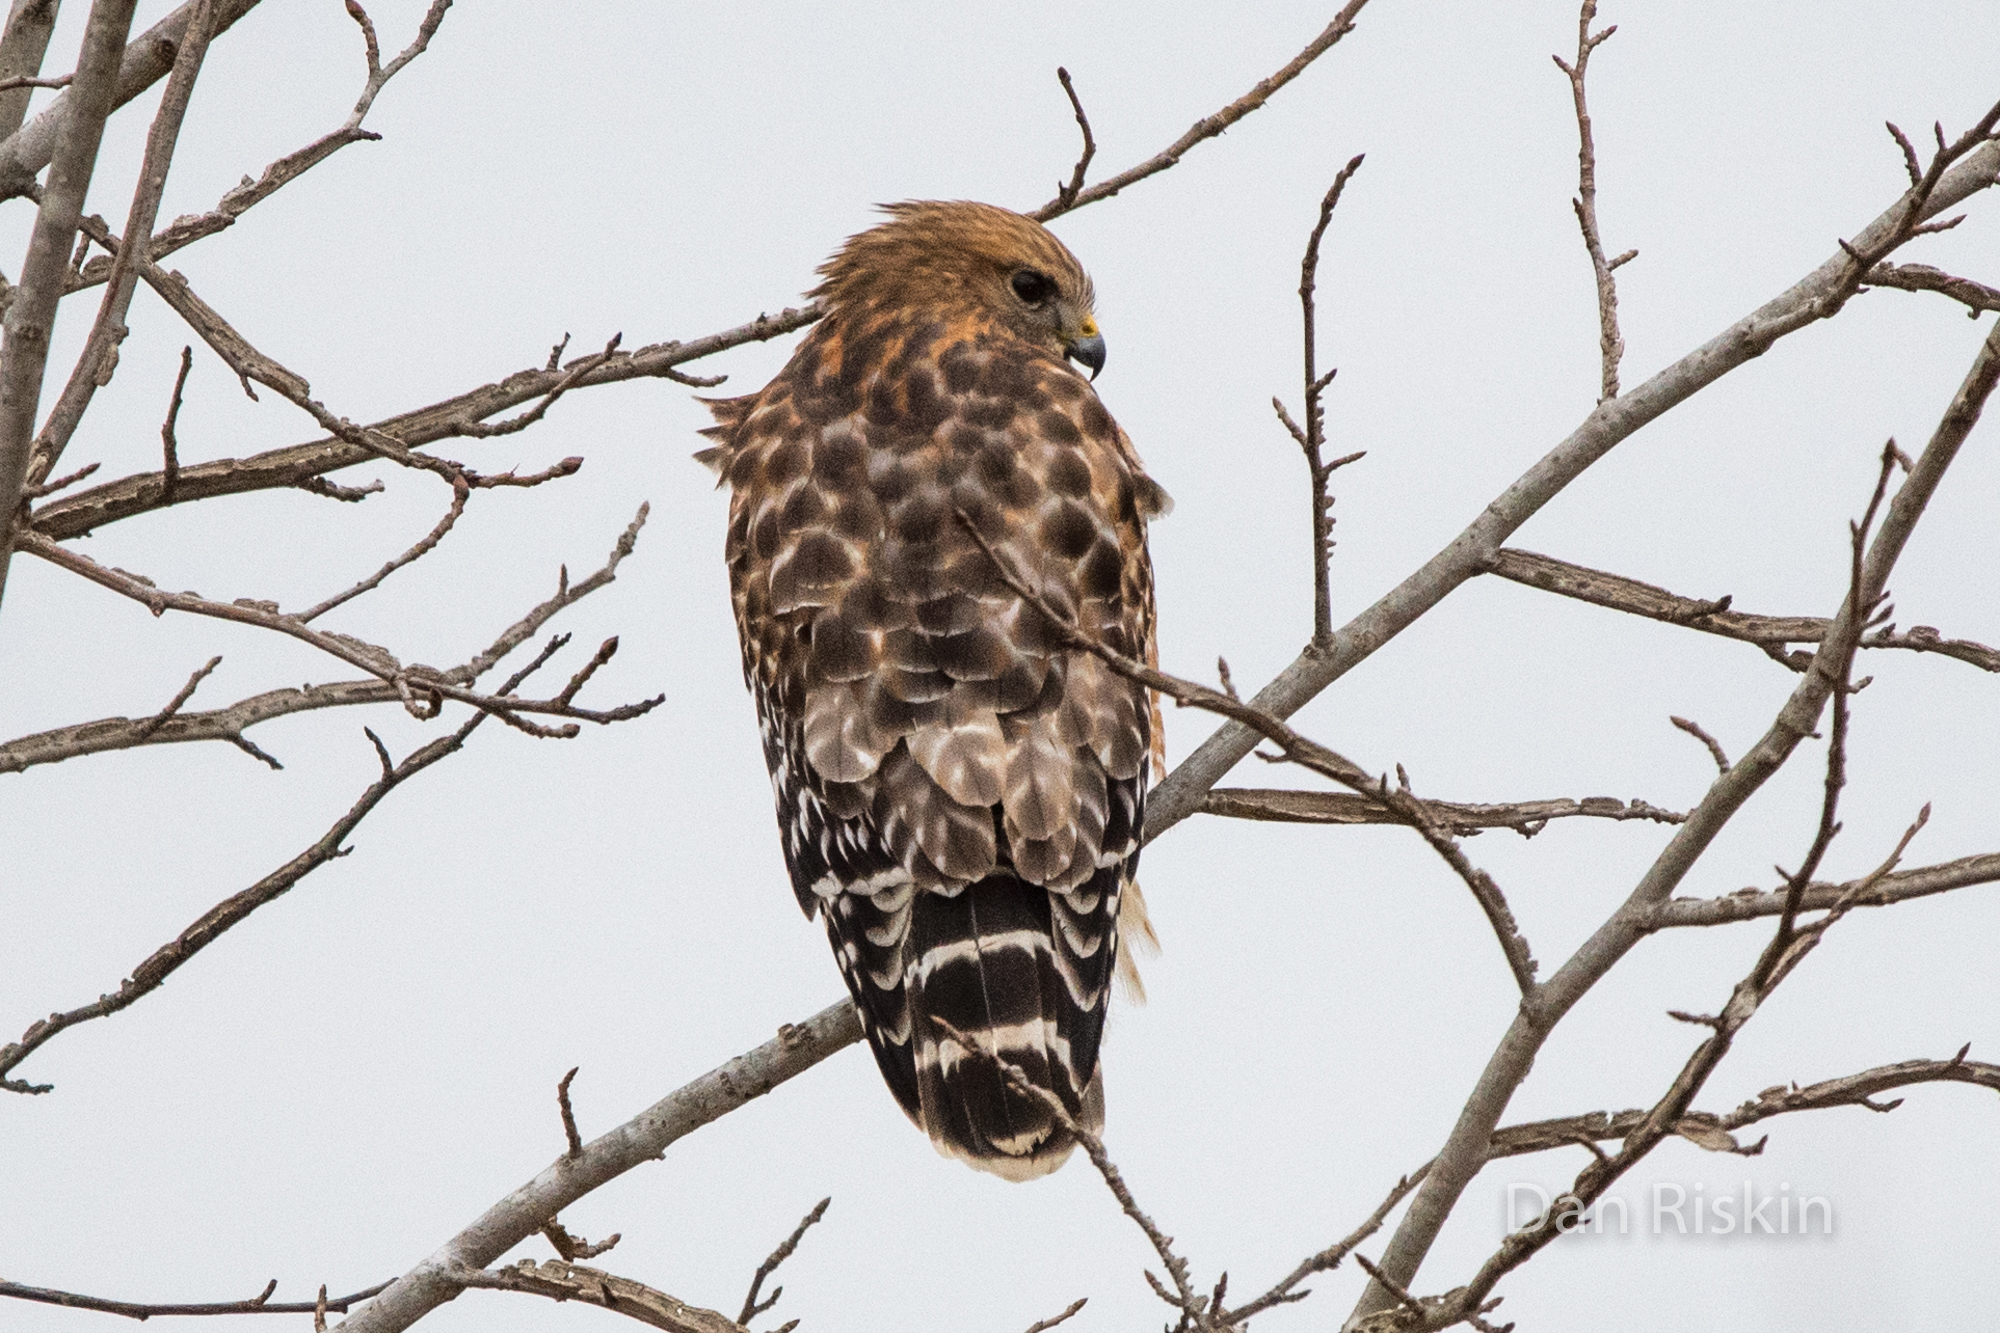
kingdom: Animalia
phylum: Chordata
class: Aves
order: Accipitriformes
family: Accipitridae
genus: Buteo
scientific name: Buteo lineatus
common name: Red-shouldered hawk
